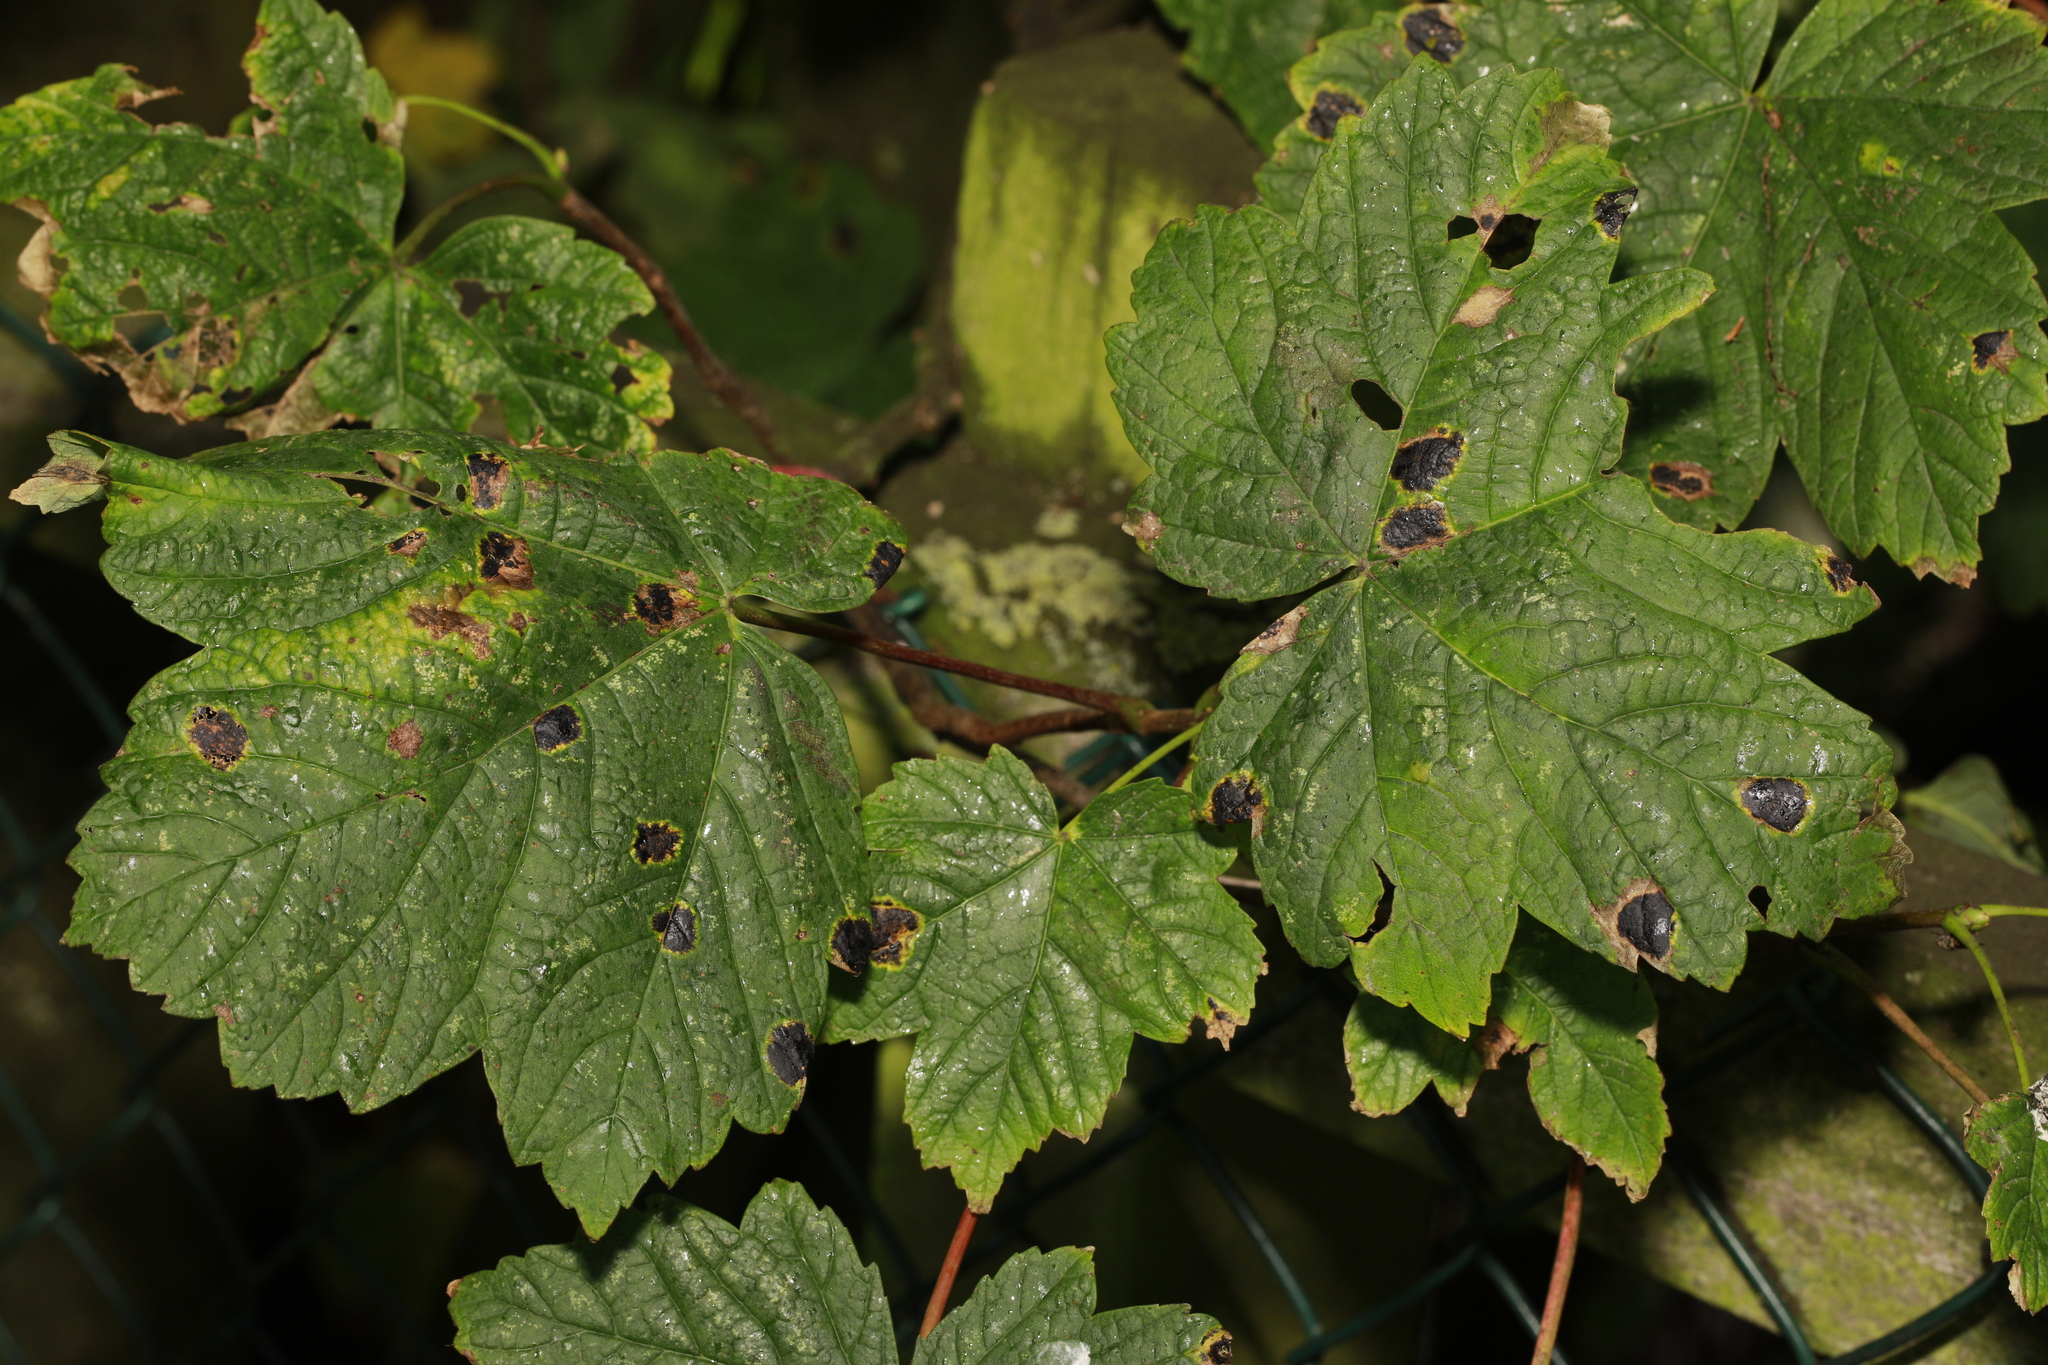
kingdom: Plantae
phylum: Tracheophyta
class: Magnoliopsida
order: Sapindales
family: Sapindaceae
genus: Acer
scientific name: Acer pseudoplatanus
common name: Sycamore
